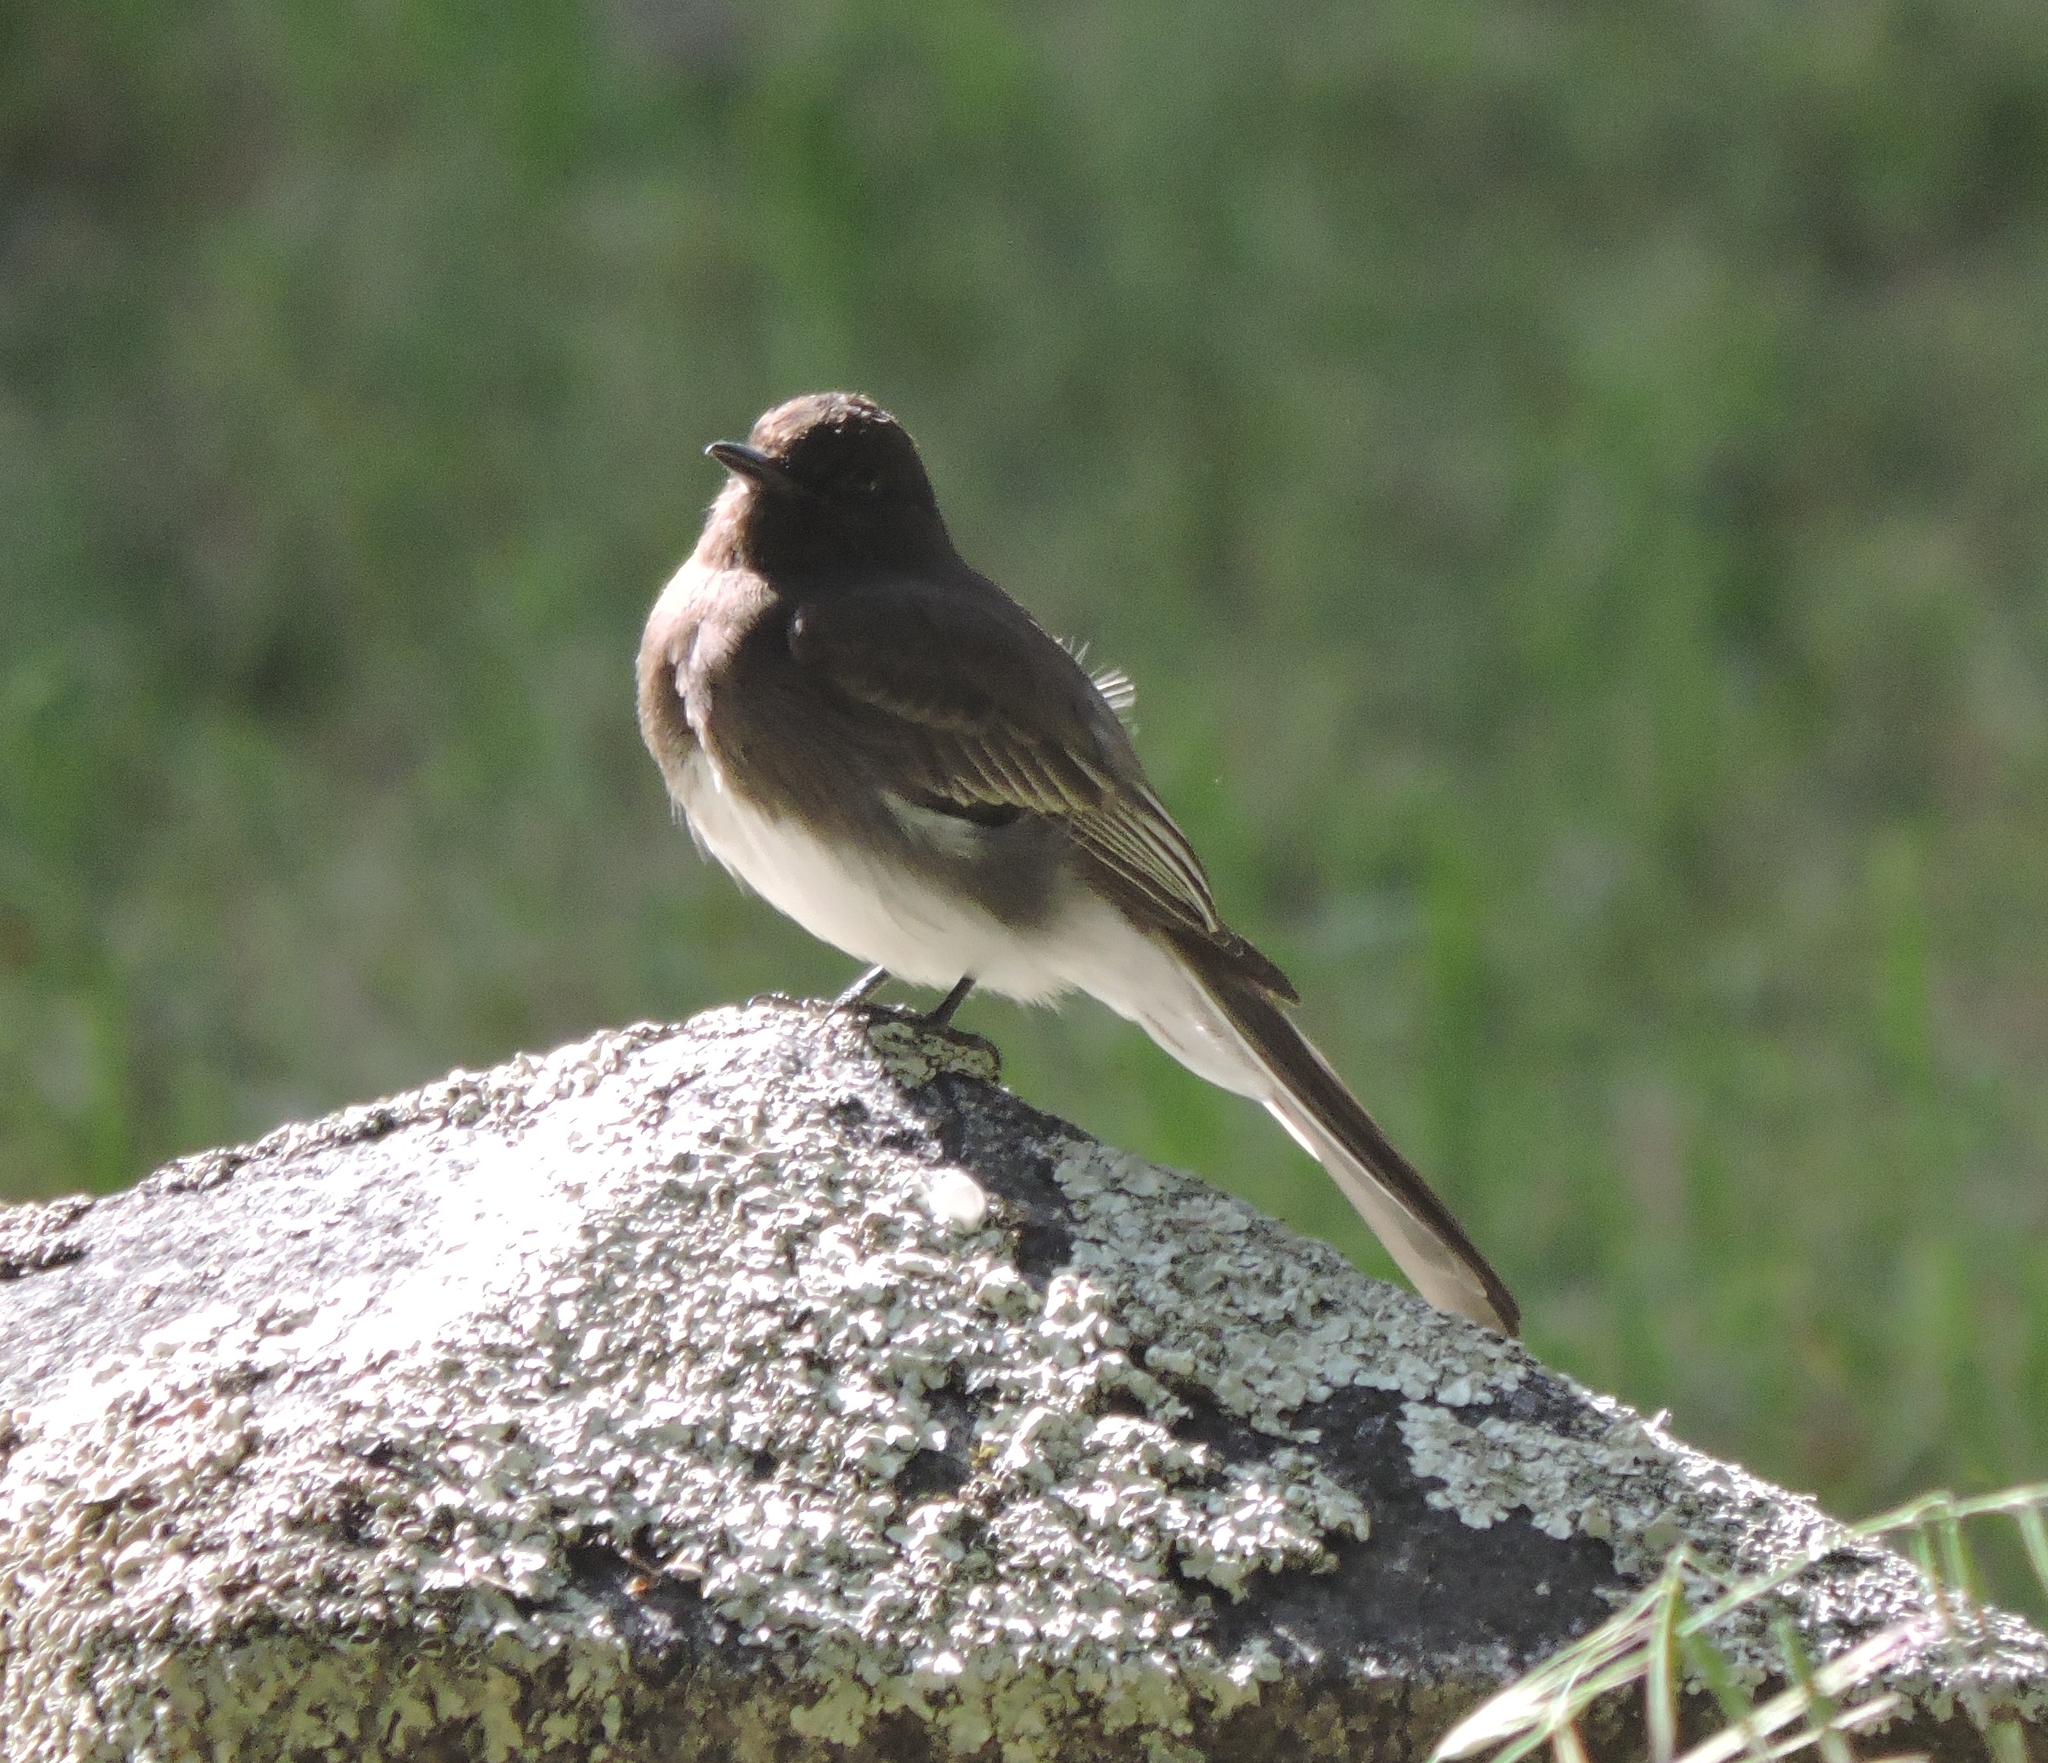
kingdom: Animalia
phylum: Chordata
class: Aves
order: Passeriformes
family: Tyrannidae
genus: Sayornis
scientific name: Sayornis nigricans
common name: Black phoebe
